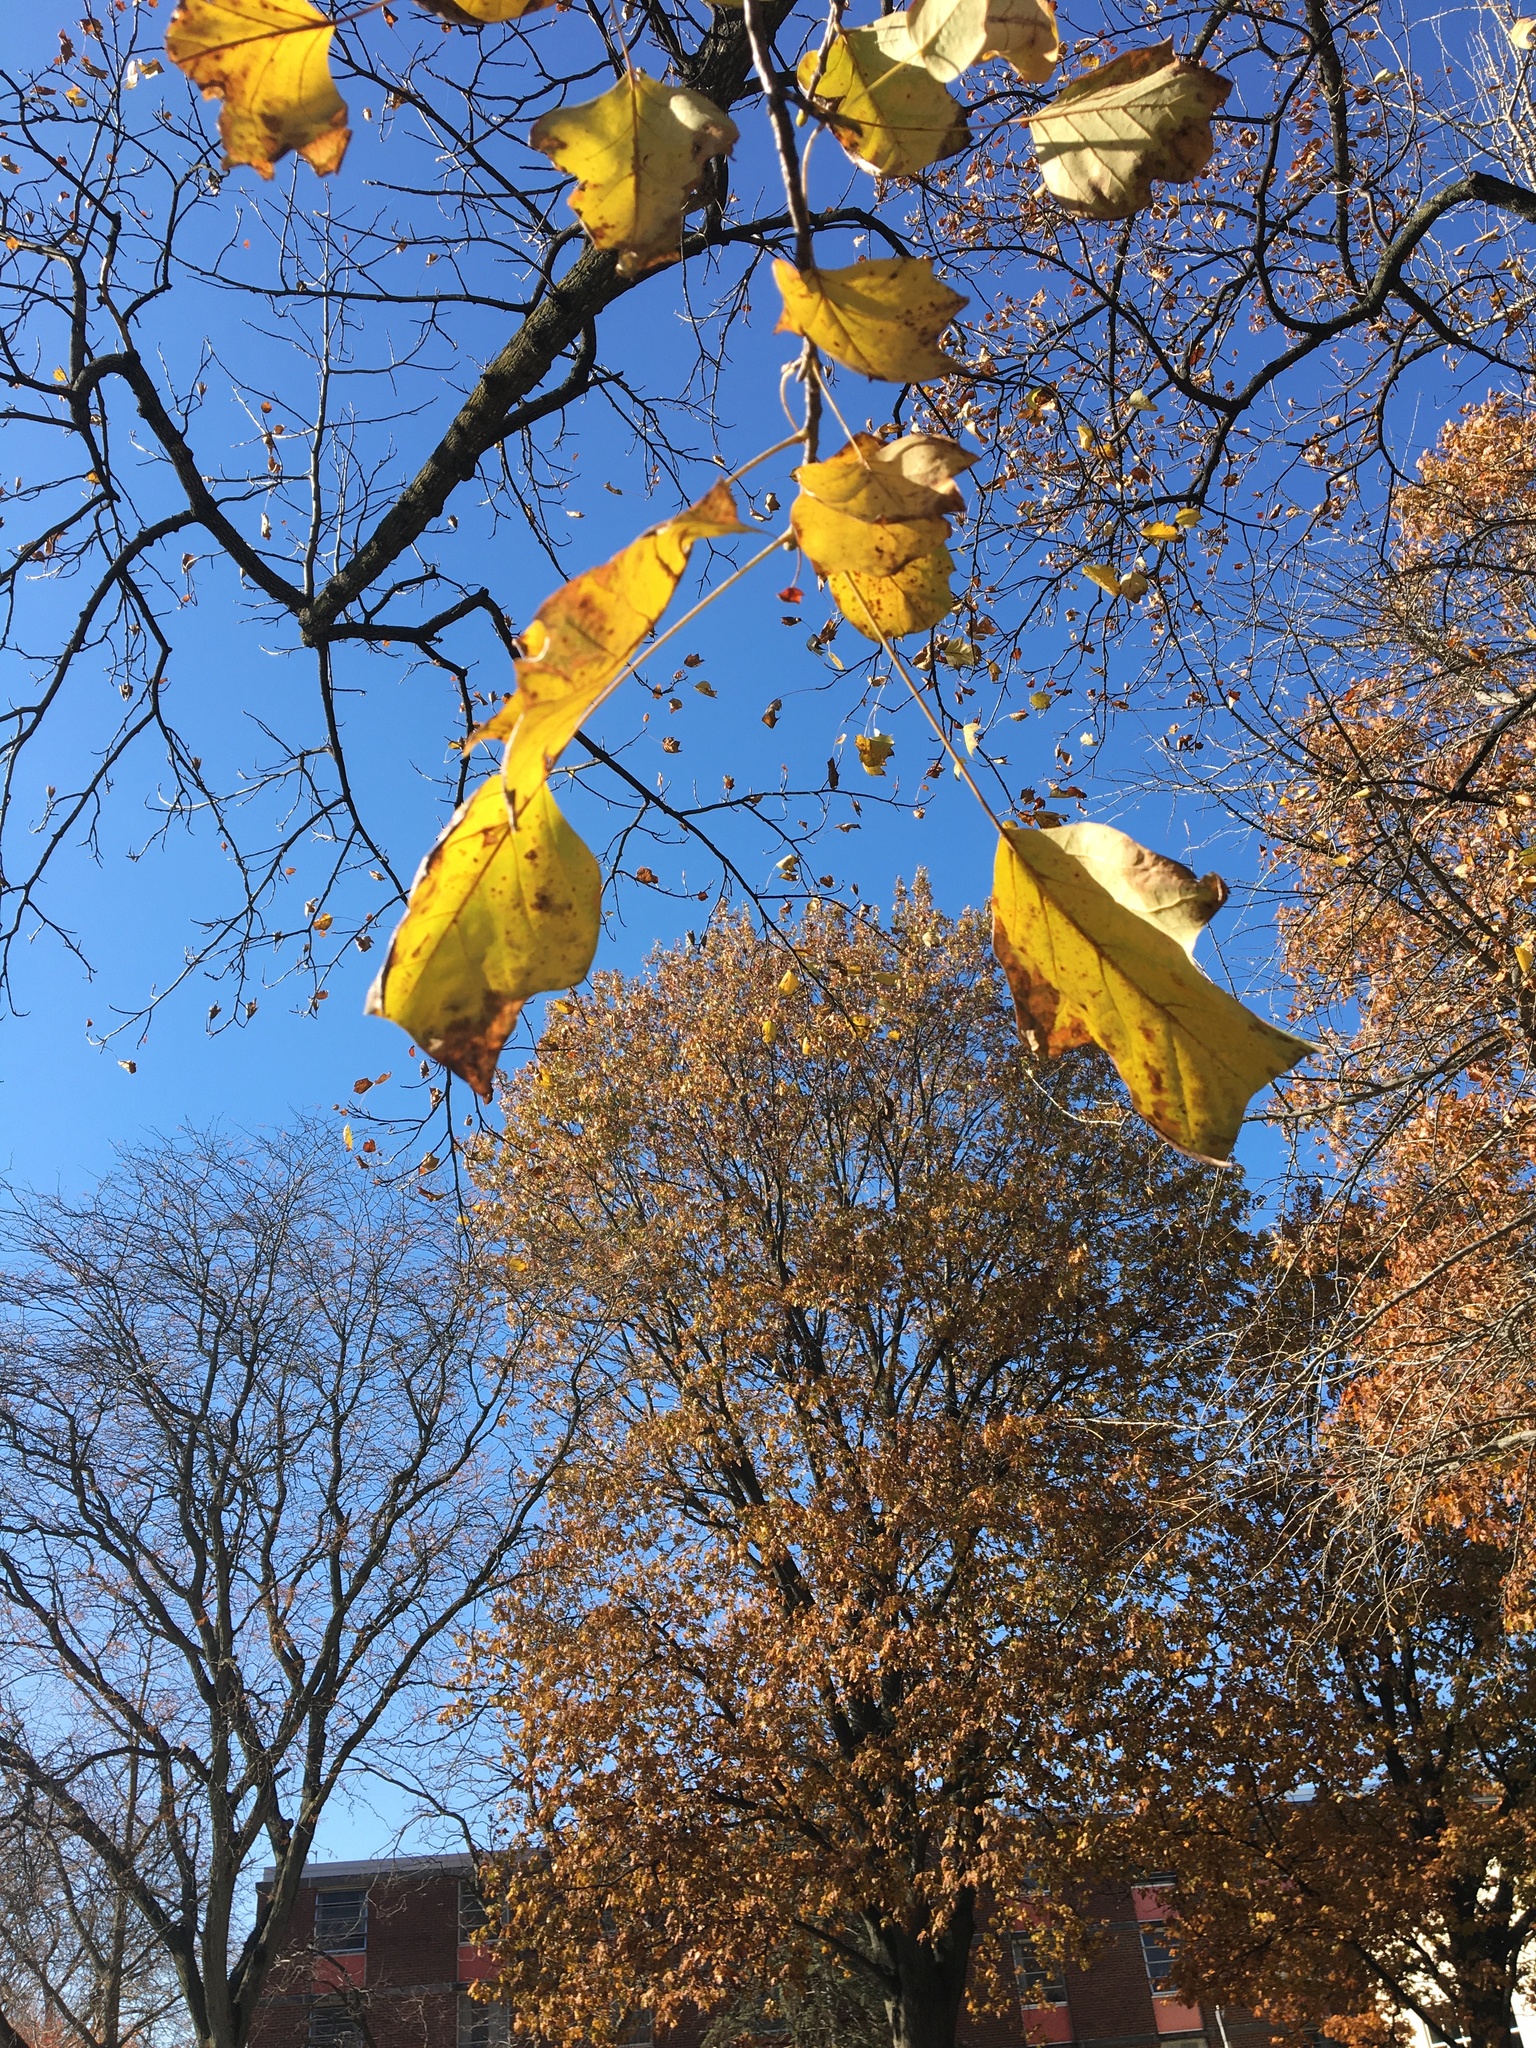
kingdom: Plantae
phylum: Tracheophyta
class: Magnoliopsida
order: Magnoliales
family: Magnoliaceae
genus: Liriodendron
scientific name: Liriodendron tulipifera
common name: Tulip tree
